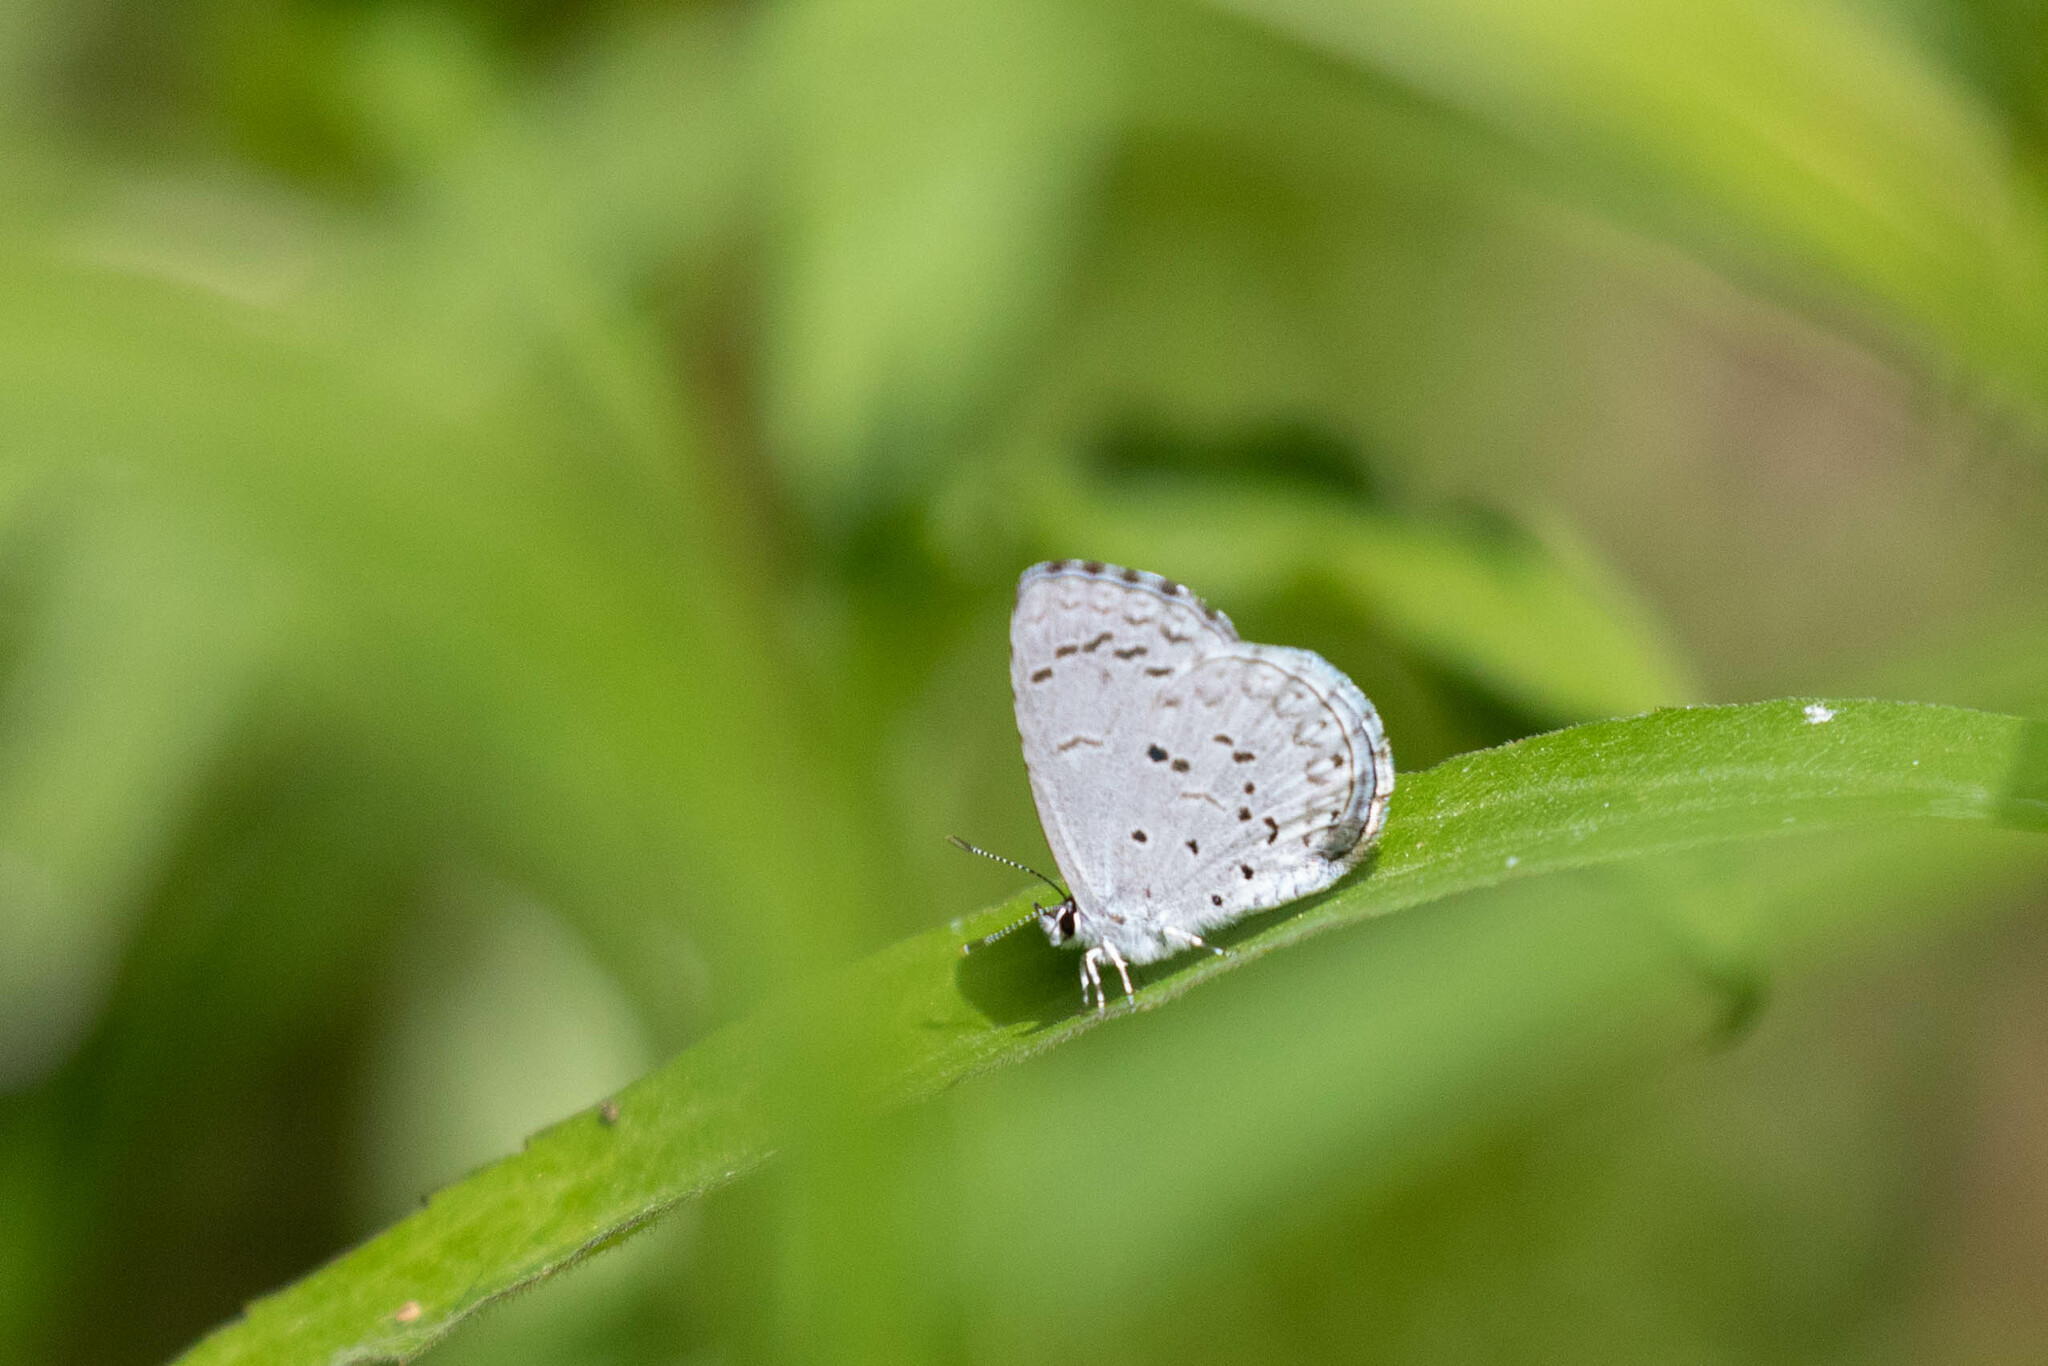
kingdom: Animalia
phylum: Arthropoda
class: Insecta
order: Lepidoptera
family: Lycaenidae
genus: Celastrina
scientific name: Celastrina lucia
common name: Lucia azure
